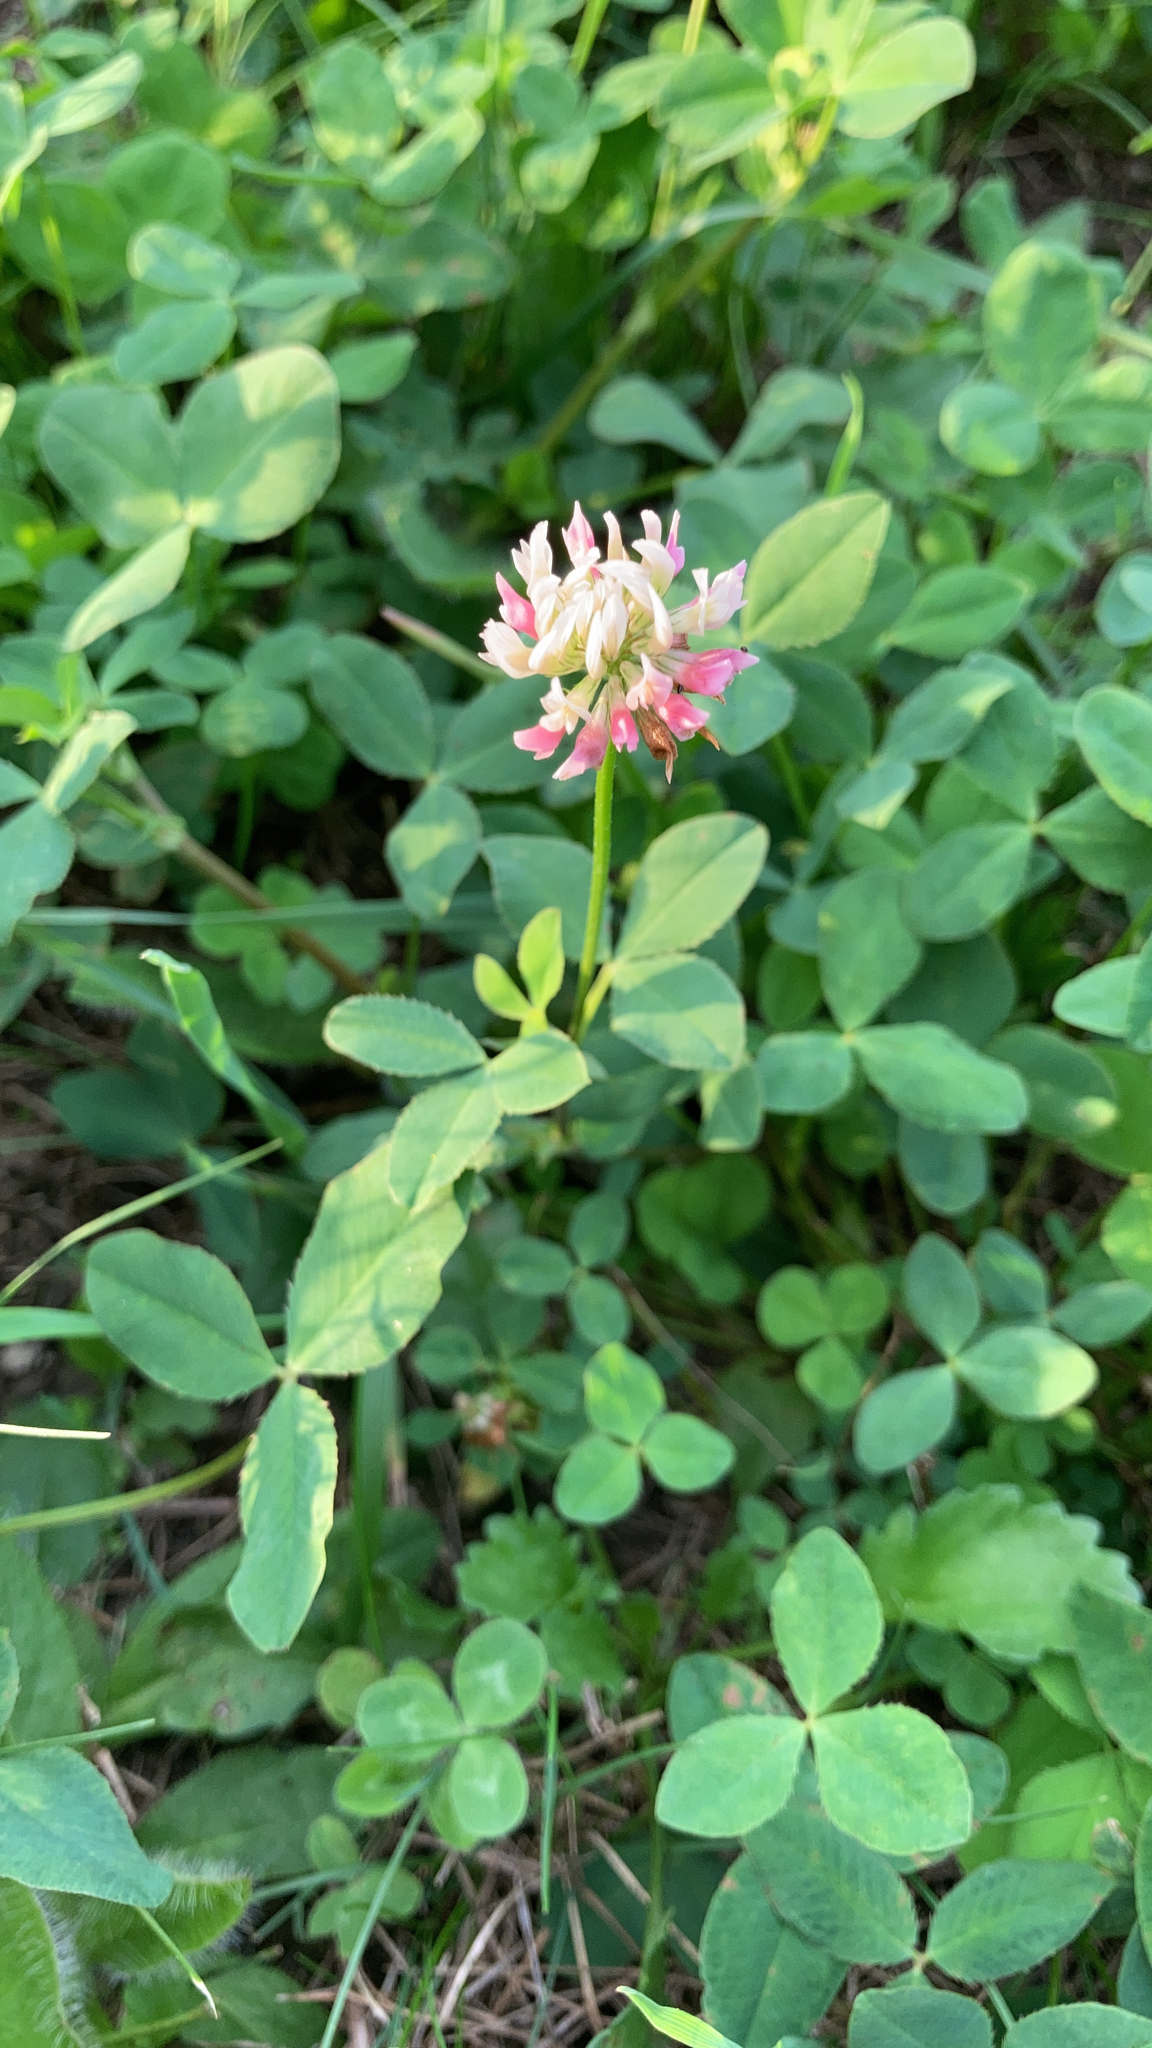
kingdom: Plantae
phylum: Tracheophyta
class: Magnoliopsida
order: Fabales
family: Fabaceae
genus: Trifolium
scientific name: Trifolium hybridum
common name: Alsike clover
